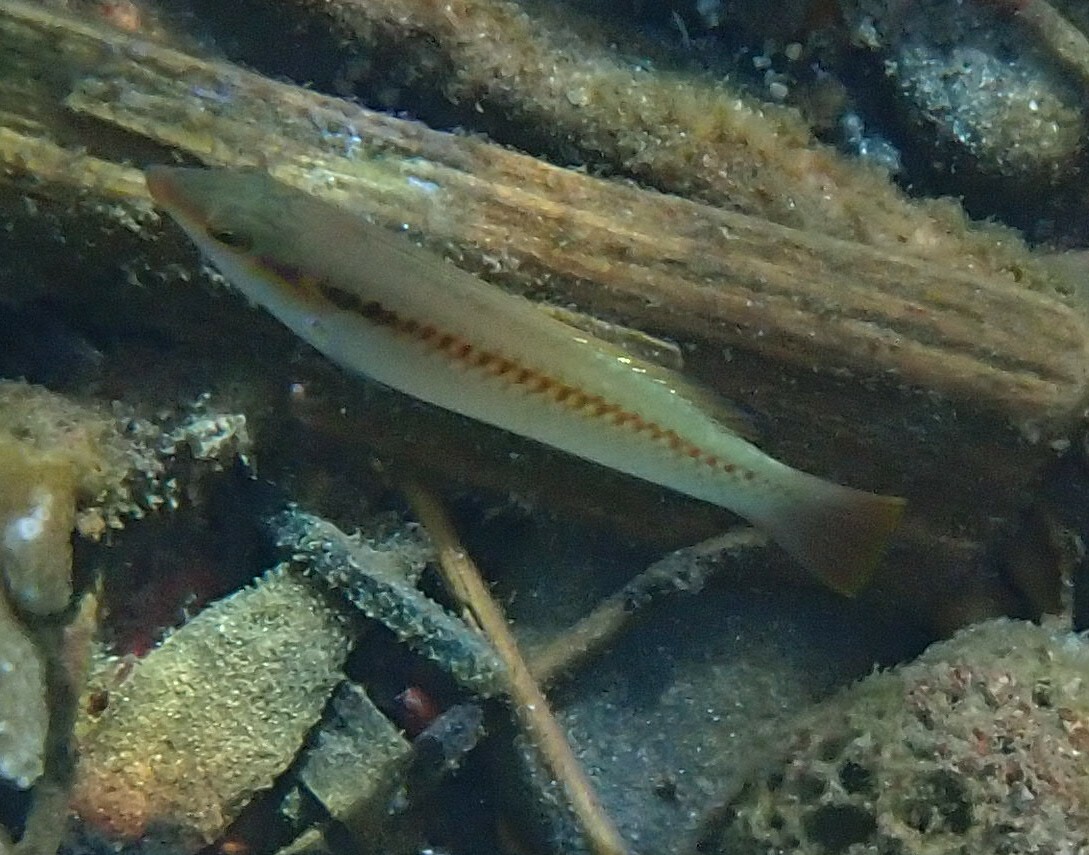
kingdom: Animalia
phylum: Chordata
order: Perciformes
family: Labridae
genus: Halichoeres
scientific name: Halichoeres scapularis
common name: Brownbanded wrasse
